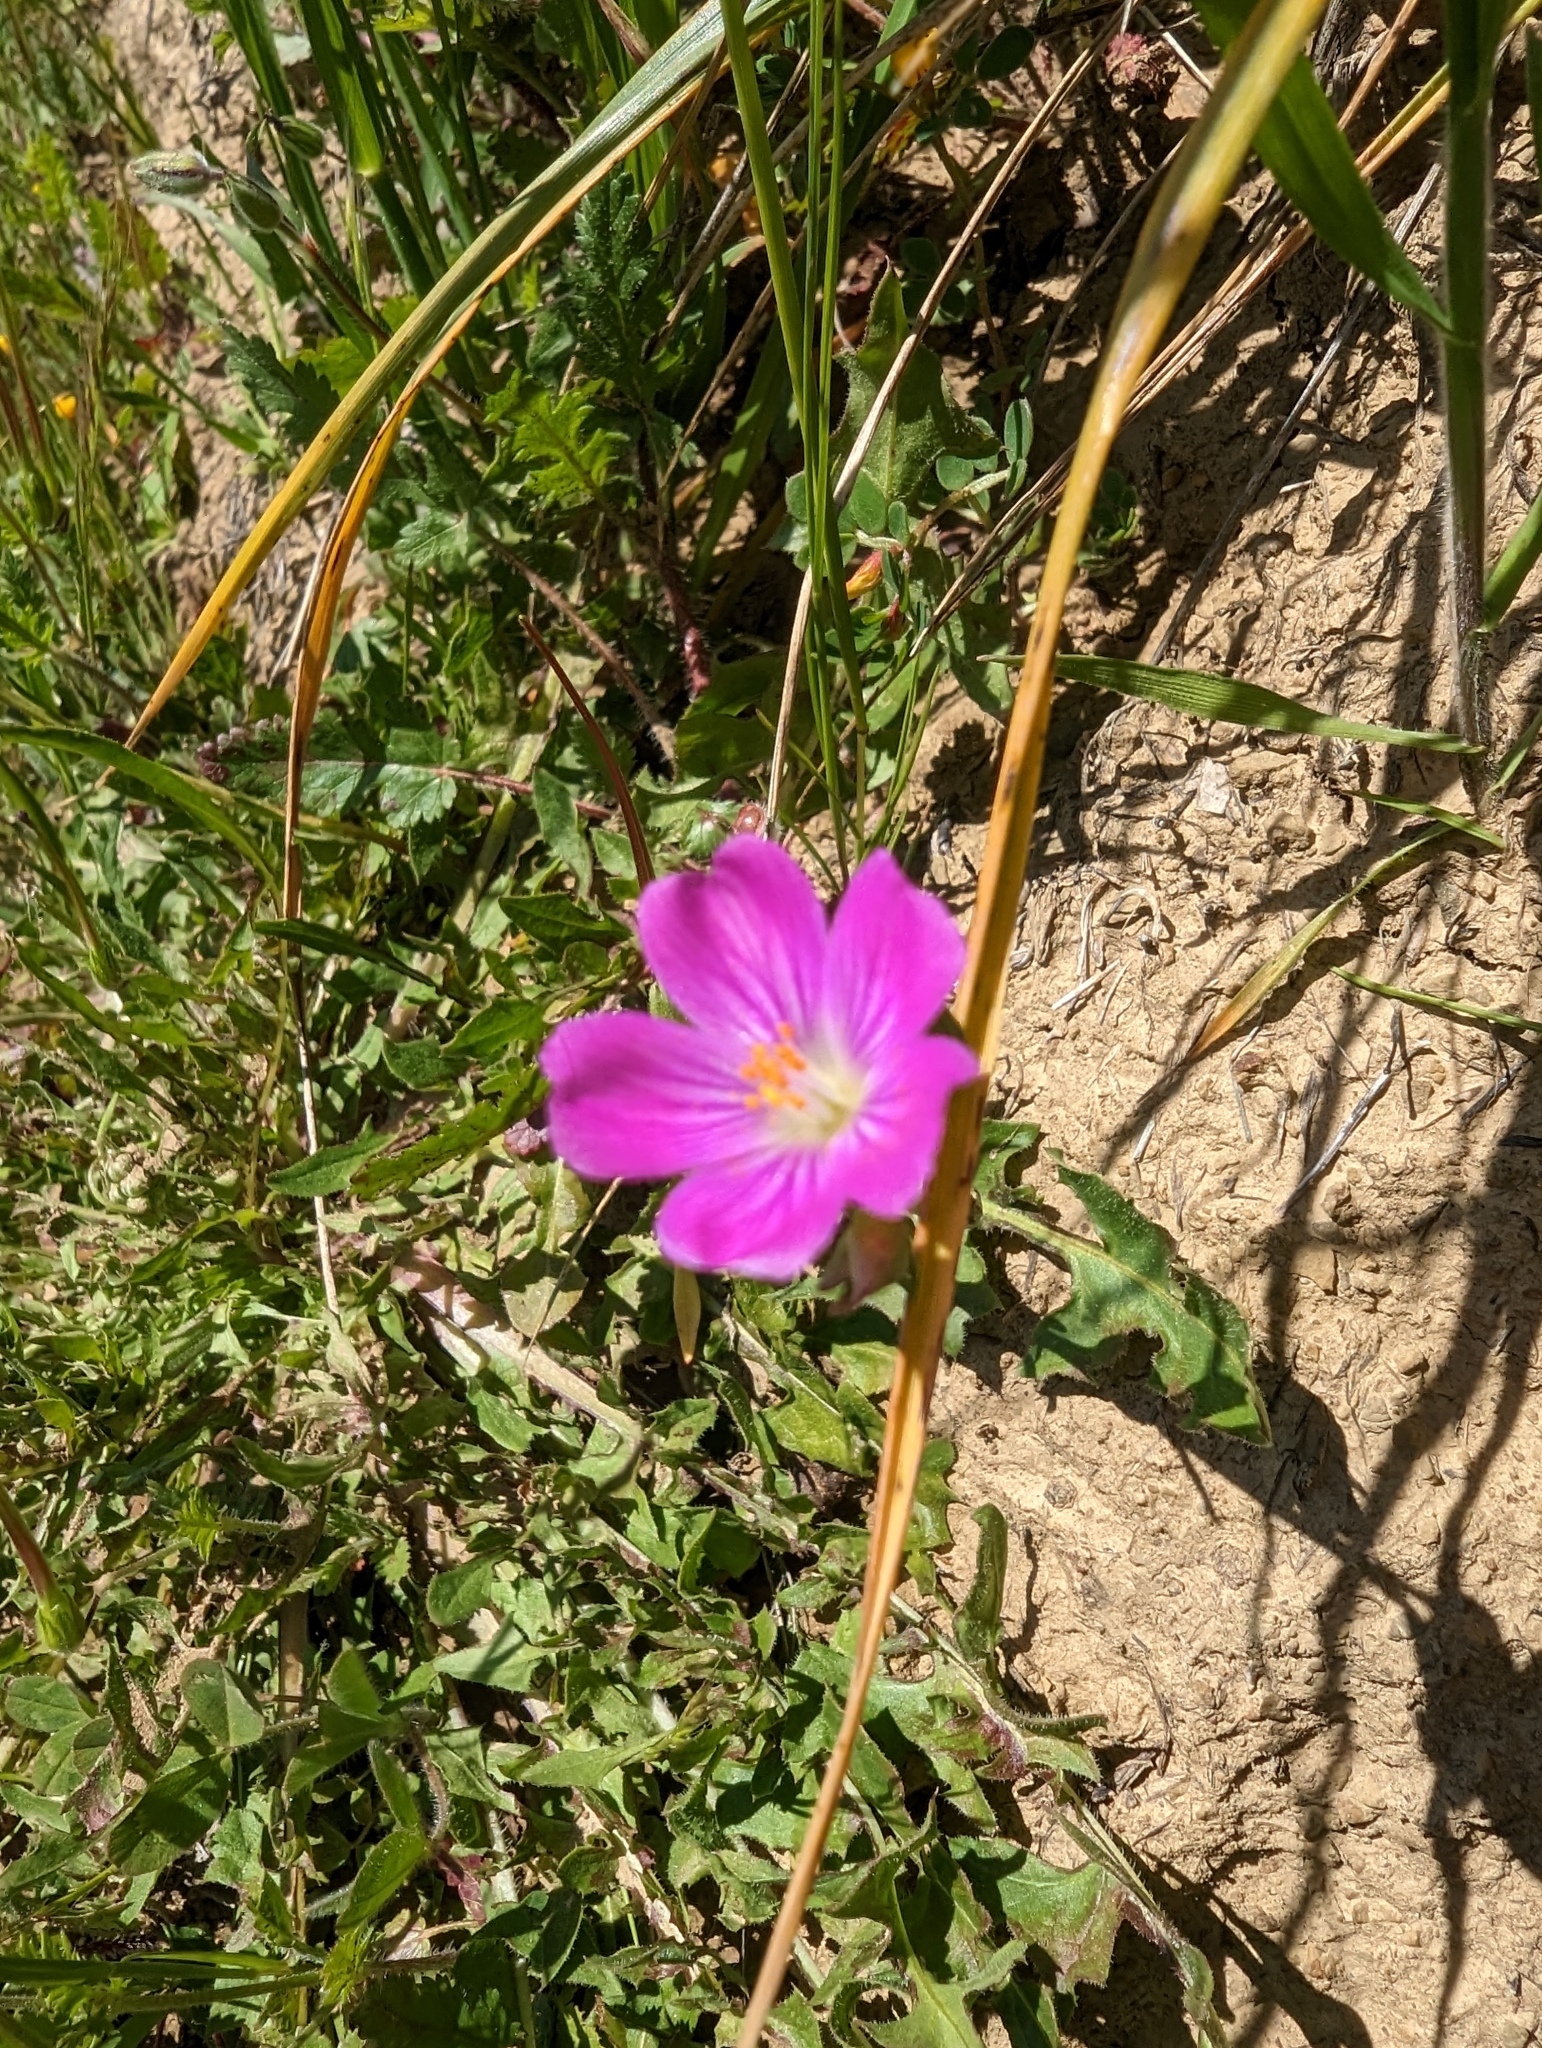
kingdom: Plantae
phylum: Tracheophyta
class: Magnoliopsida
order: Caryophyllales
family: Montiaceae
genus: Calandrinia
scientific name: Calandrinia menziesii
